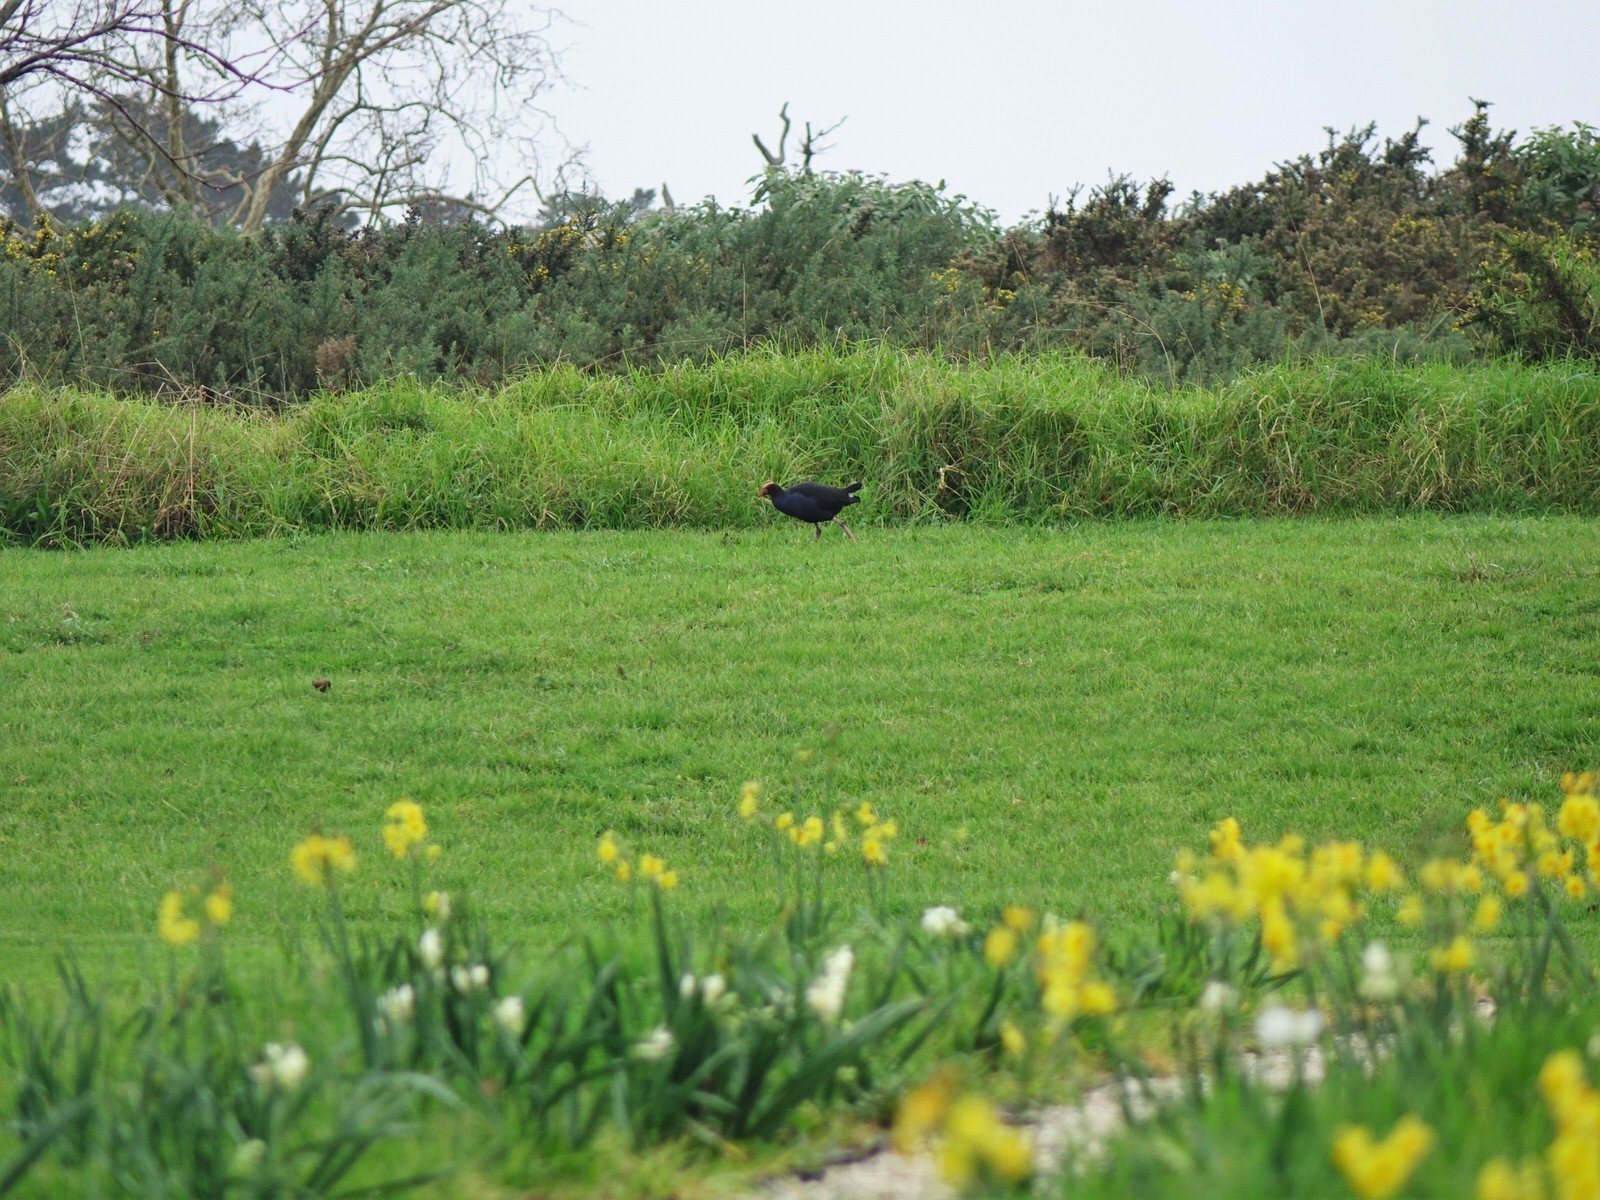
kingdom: Animalia
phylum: Chordata
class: Aves
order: Gruiformes
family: Rallidae
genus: Porphyrio
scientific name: Porphyrio melanotus
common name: Australasian swamphen
